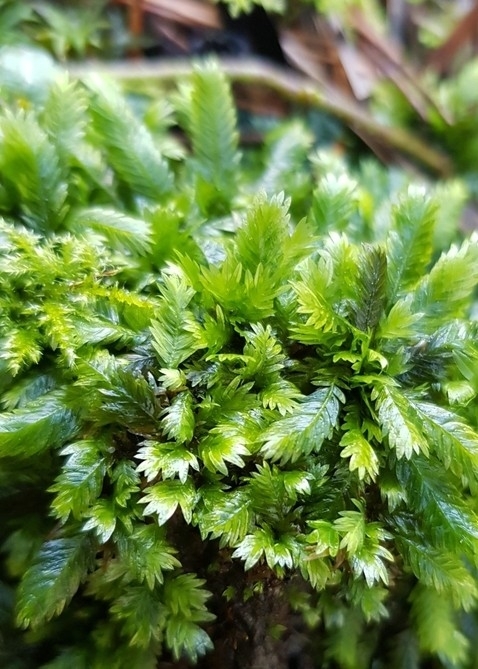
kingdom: Plantae
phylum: Bryophyta
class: Bryopsida
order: Dicranales
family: Fissidentaceae
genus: Fissidens
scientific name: Fissidens taxifolius
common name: Yew-leaved pocket moss
